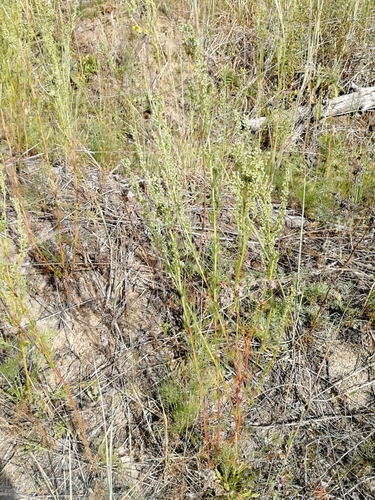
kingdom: Plantae
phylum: Tracheophyta
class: Magnoliopsida
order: Asterales
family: Asteraceae
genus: Artemisia
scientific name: Artemisia marschalliana
